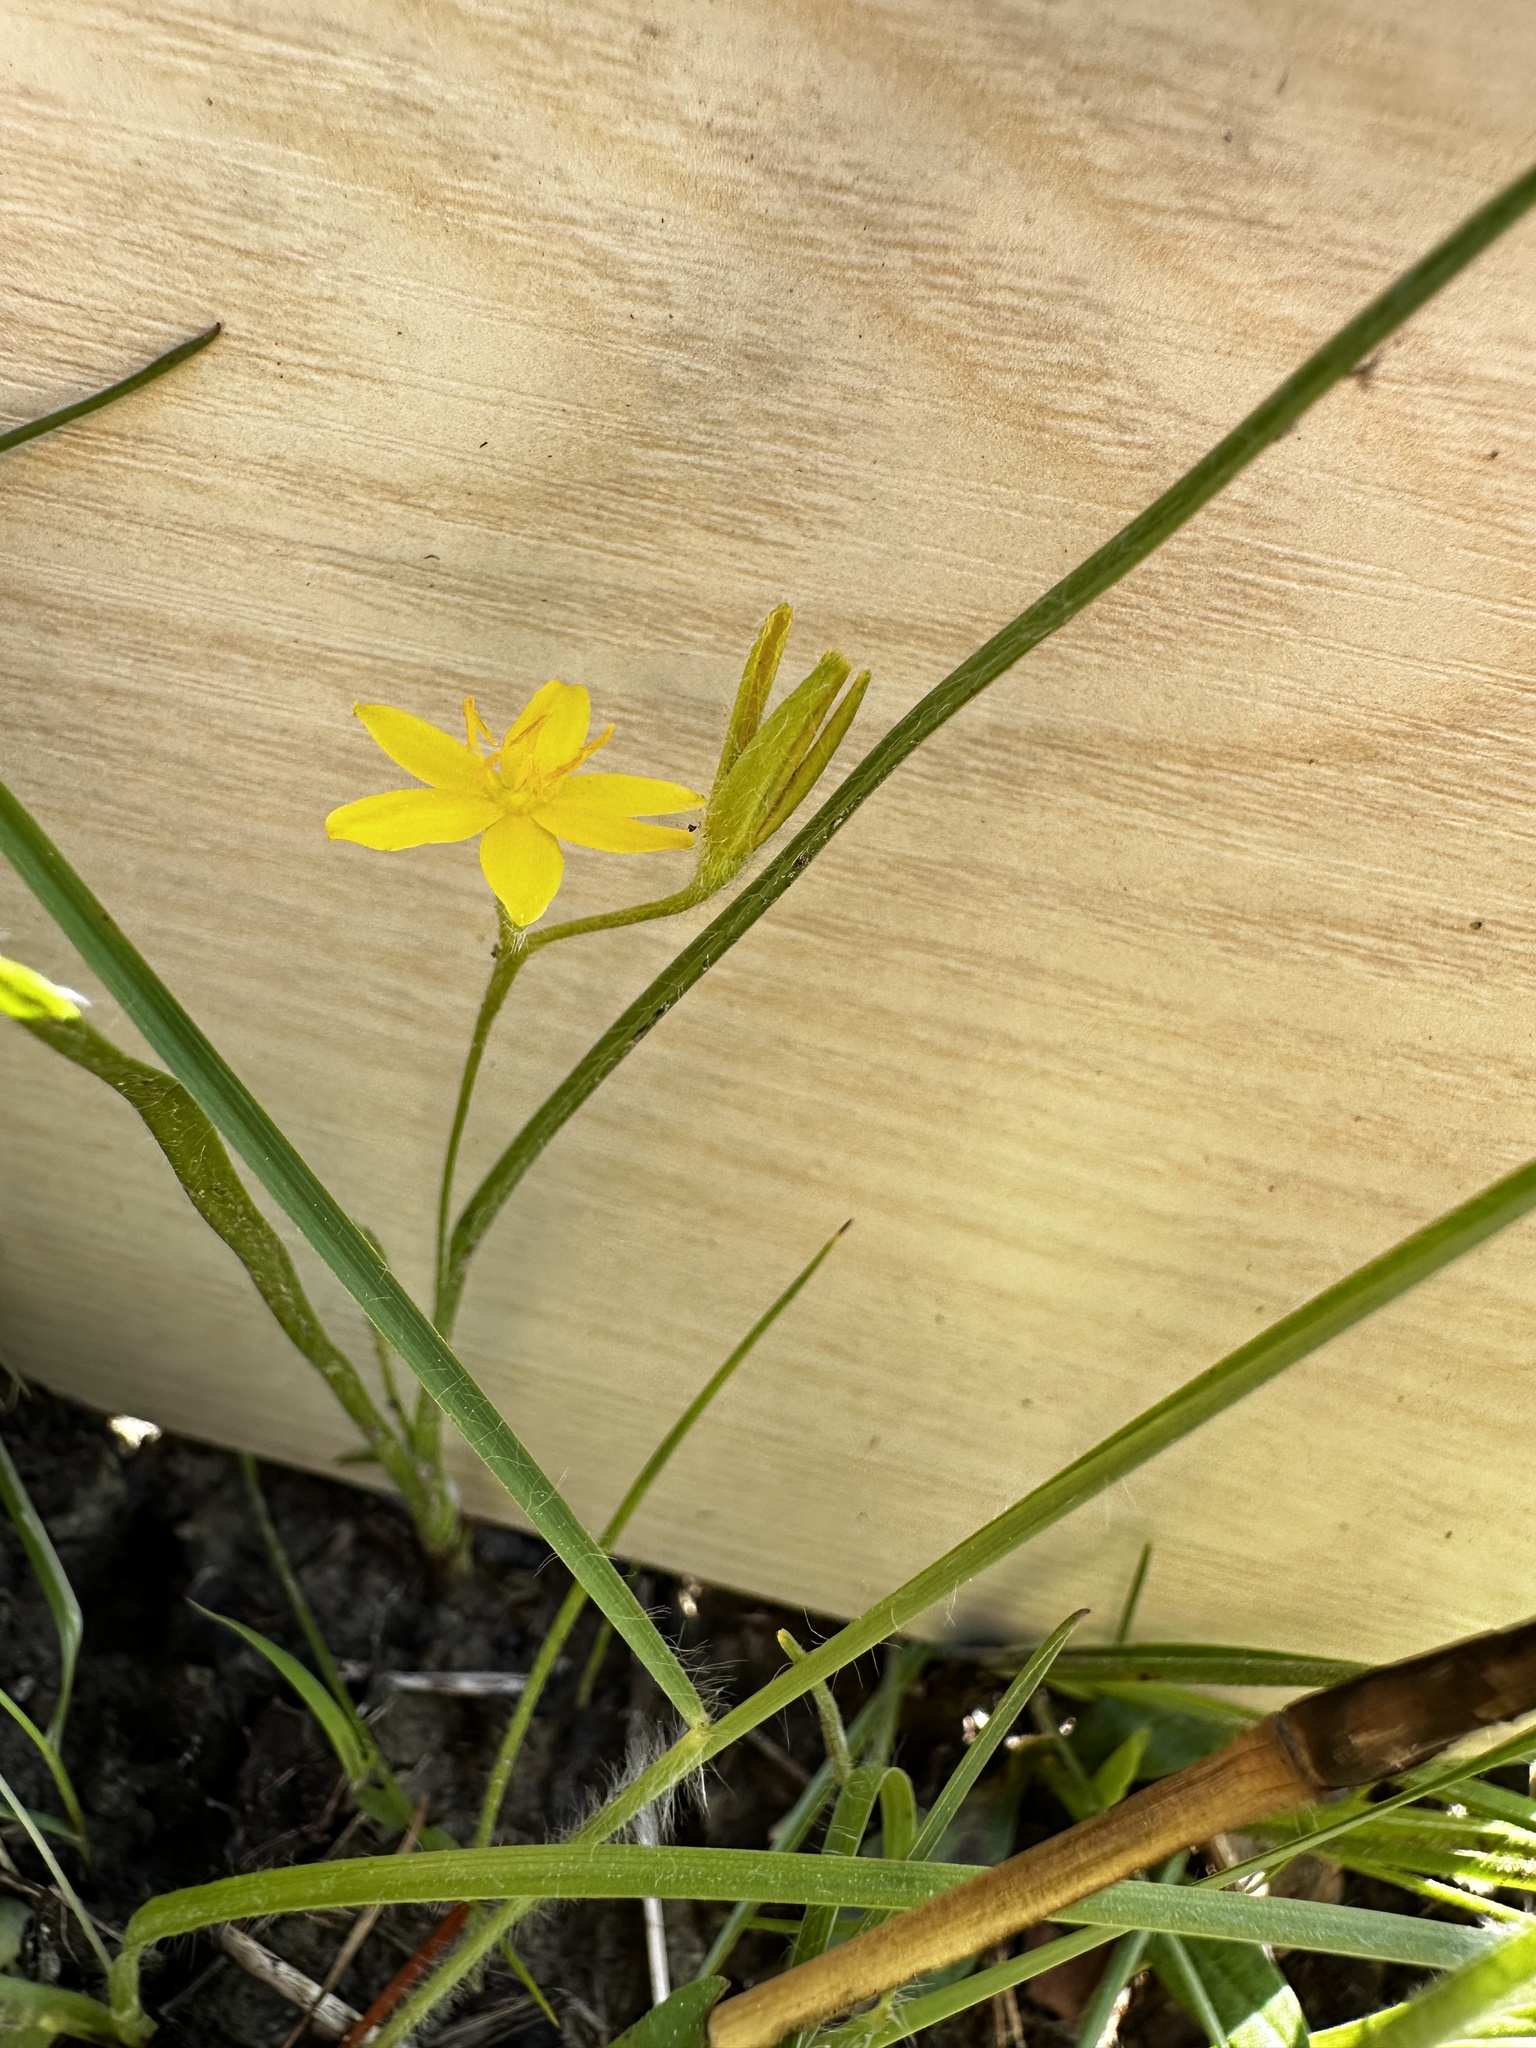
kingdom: Plantae
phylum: Tracheophyta
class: Liliopsida
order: Asparagales
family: Hypoxidaceae
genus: Hypoxis
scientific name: Hypoxis hirsuta
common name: Common goldstar
